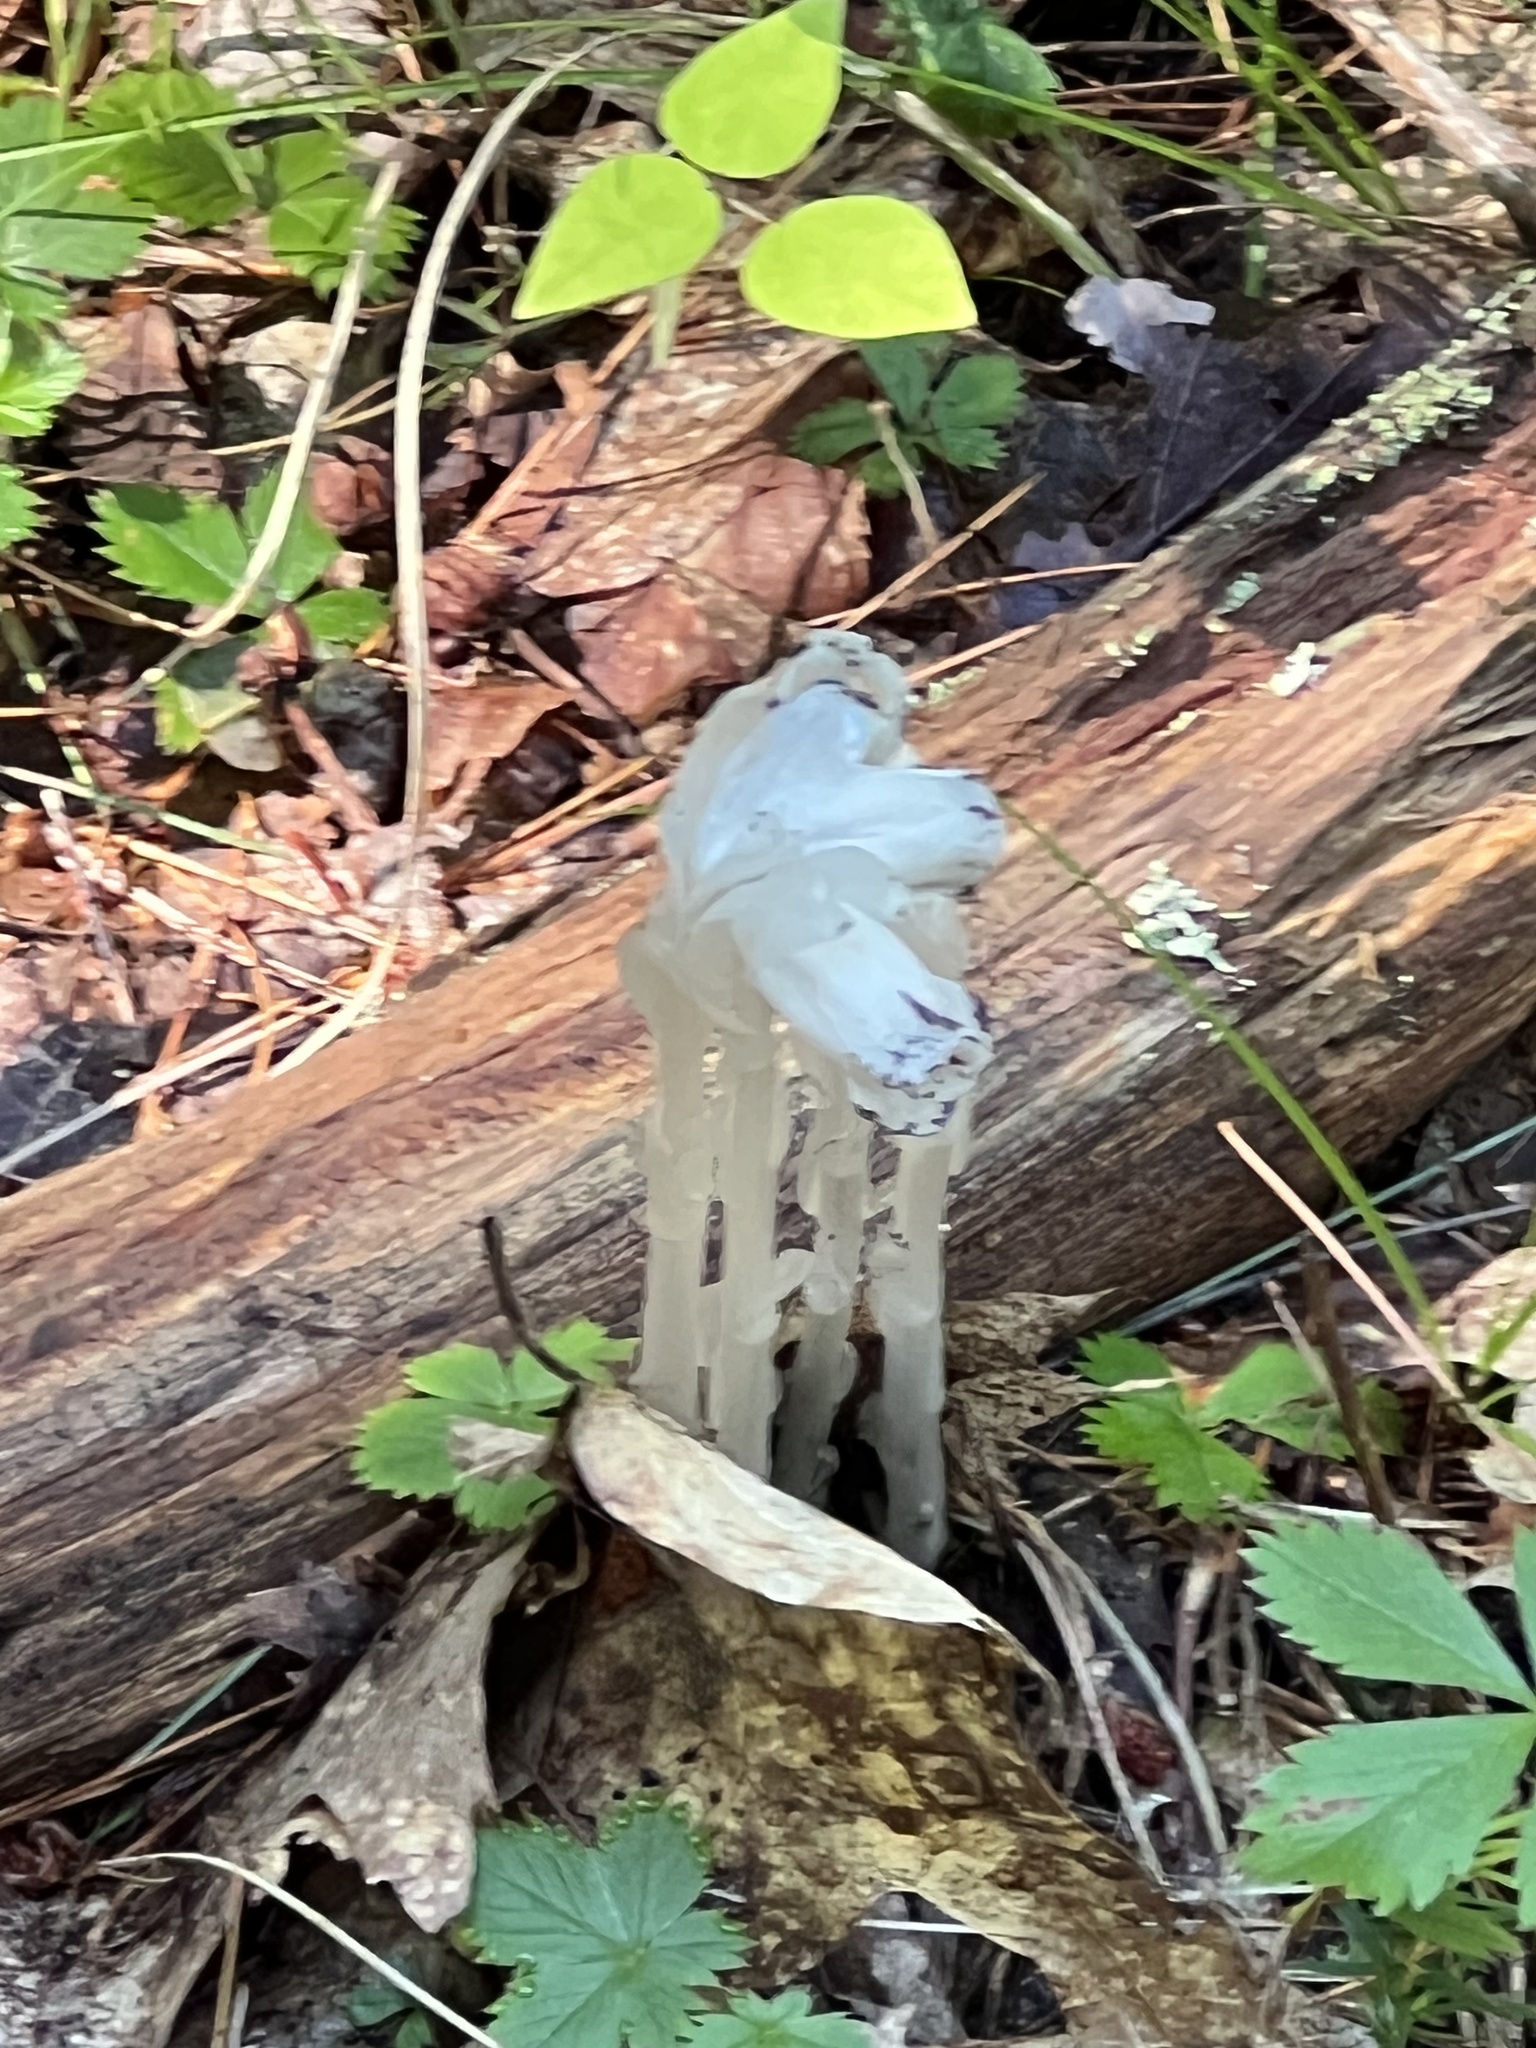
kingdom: Plantae
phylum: Tracheophyta
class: Magnoliopsida
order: Ericales
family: Ericaceae
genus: Monotropa
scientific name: Monotropa uniflora
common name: Convulsion root
